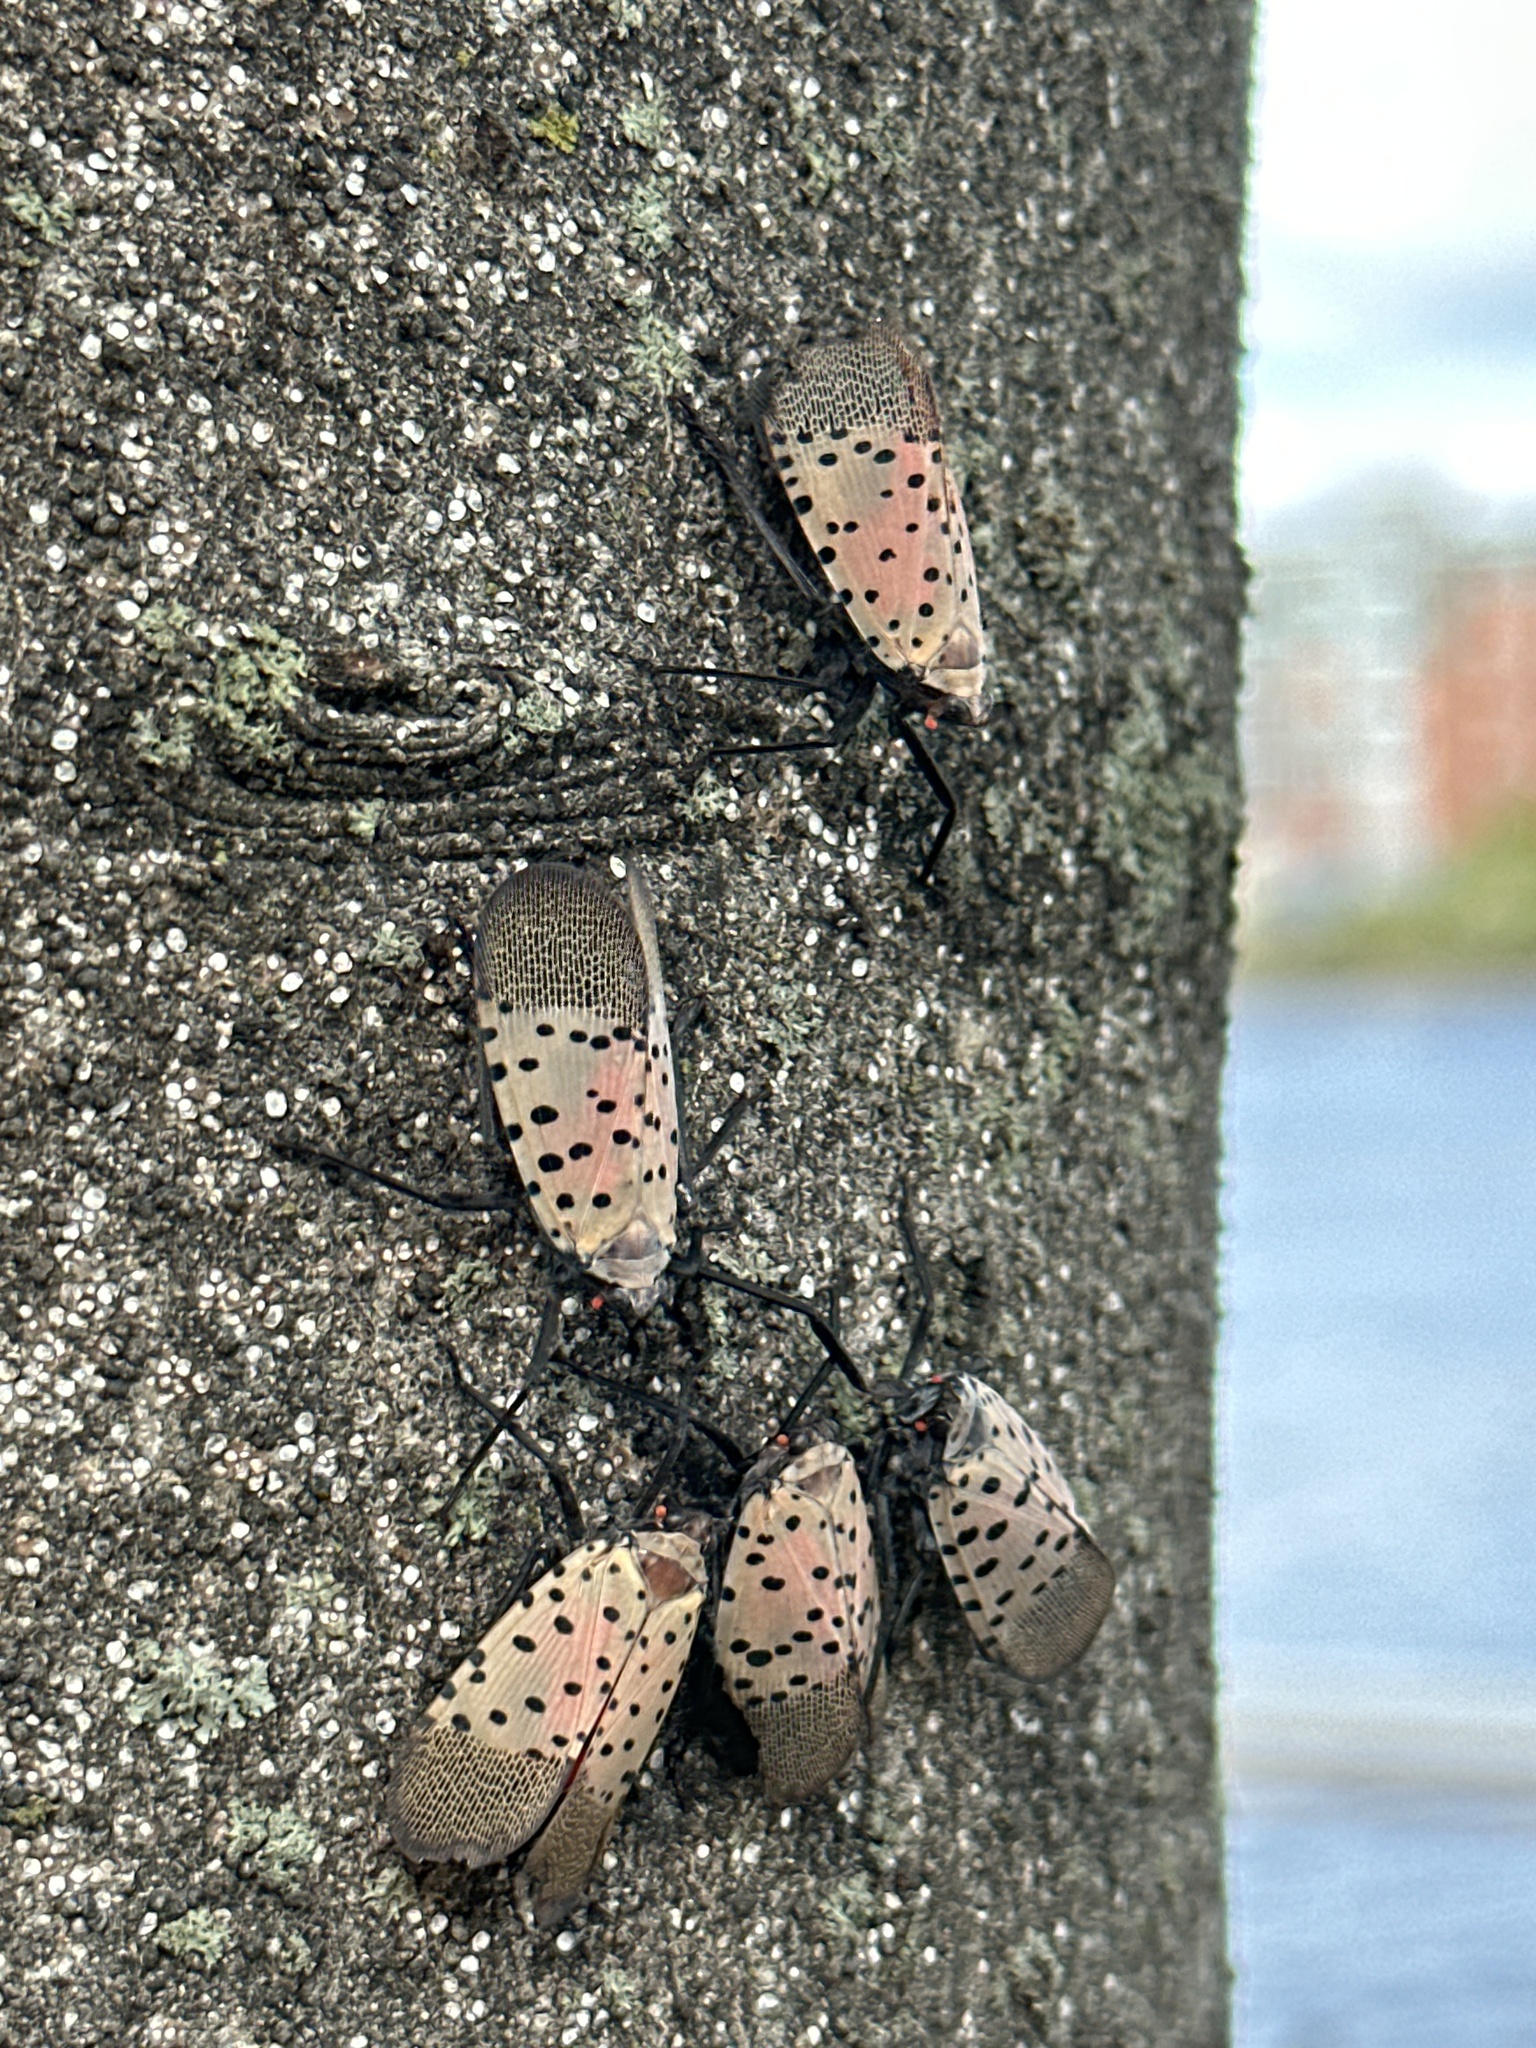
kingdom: Animalia
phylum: Arthropoda
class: Insecta
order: Hemiptera
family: Fulgoridae
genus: Lycorma
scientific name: Lycorma delicatula
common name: Spotted lanternfly
